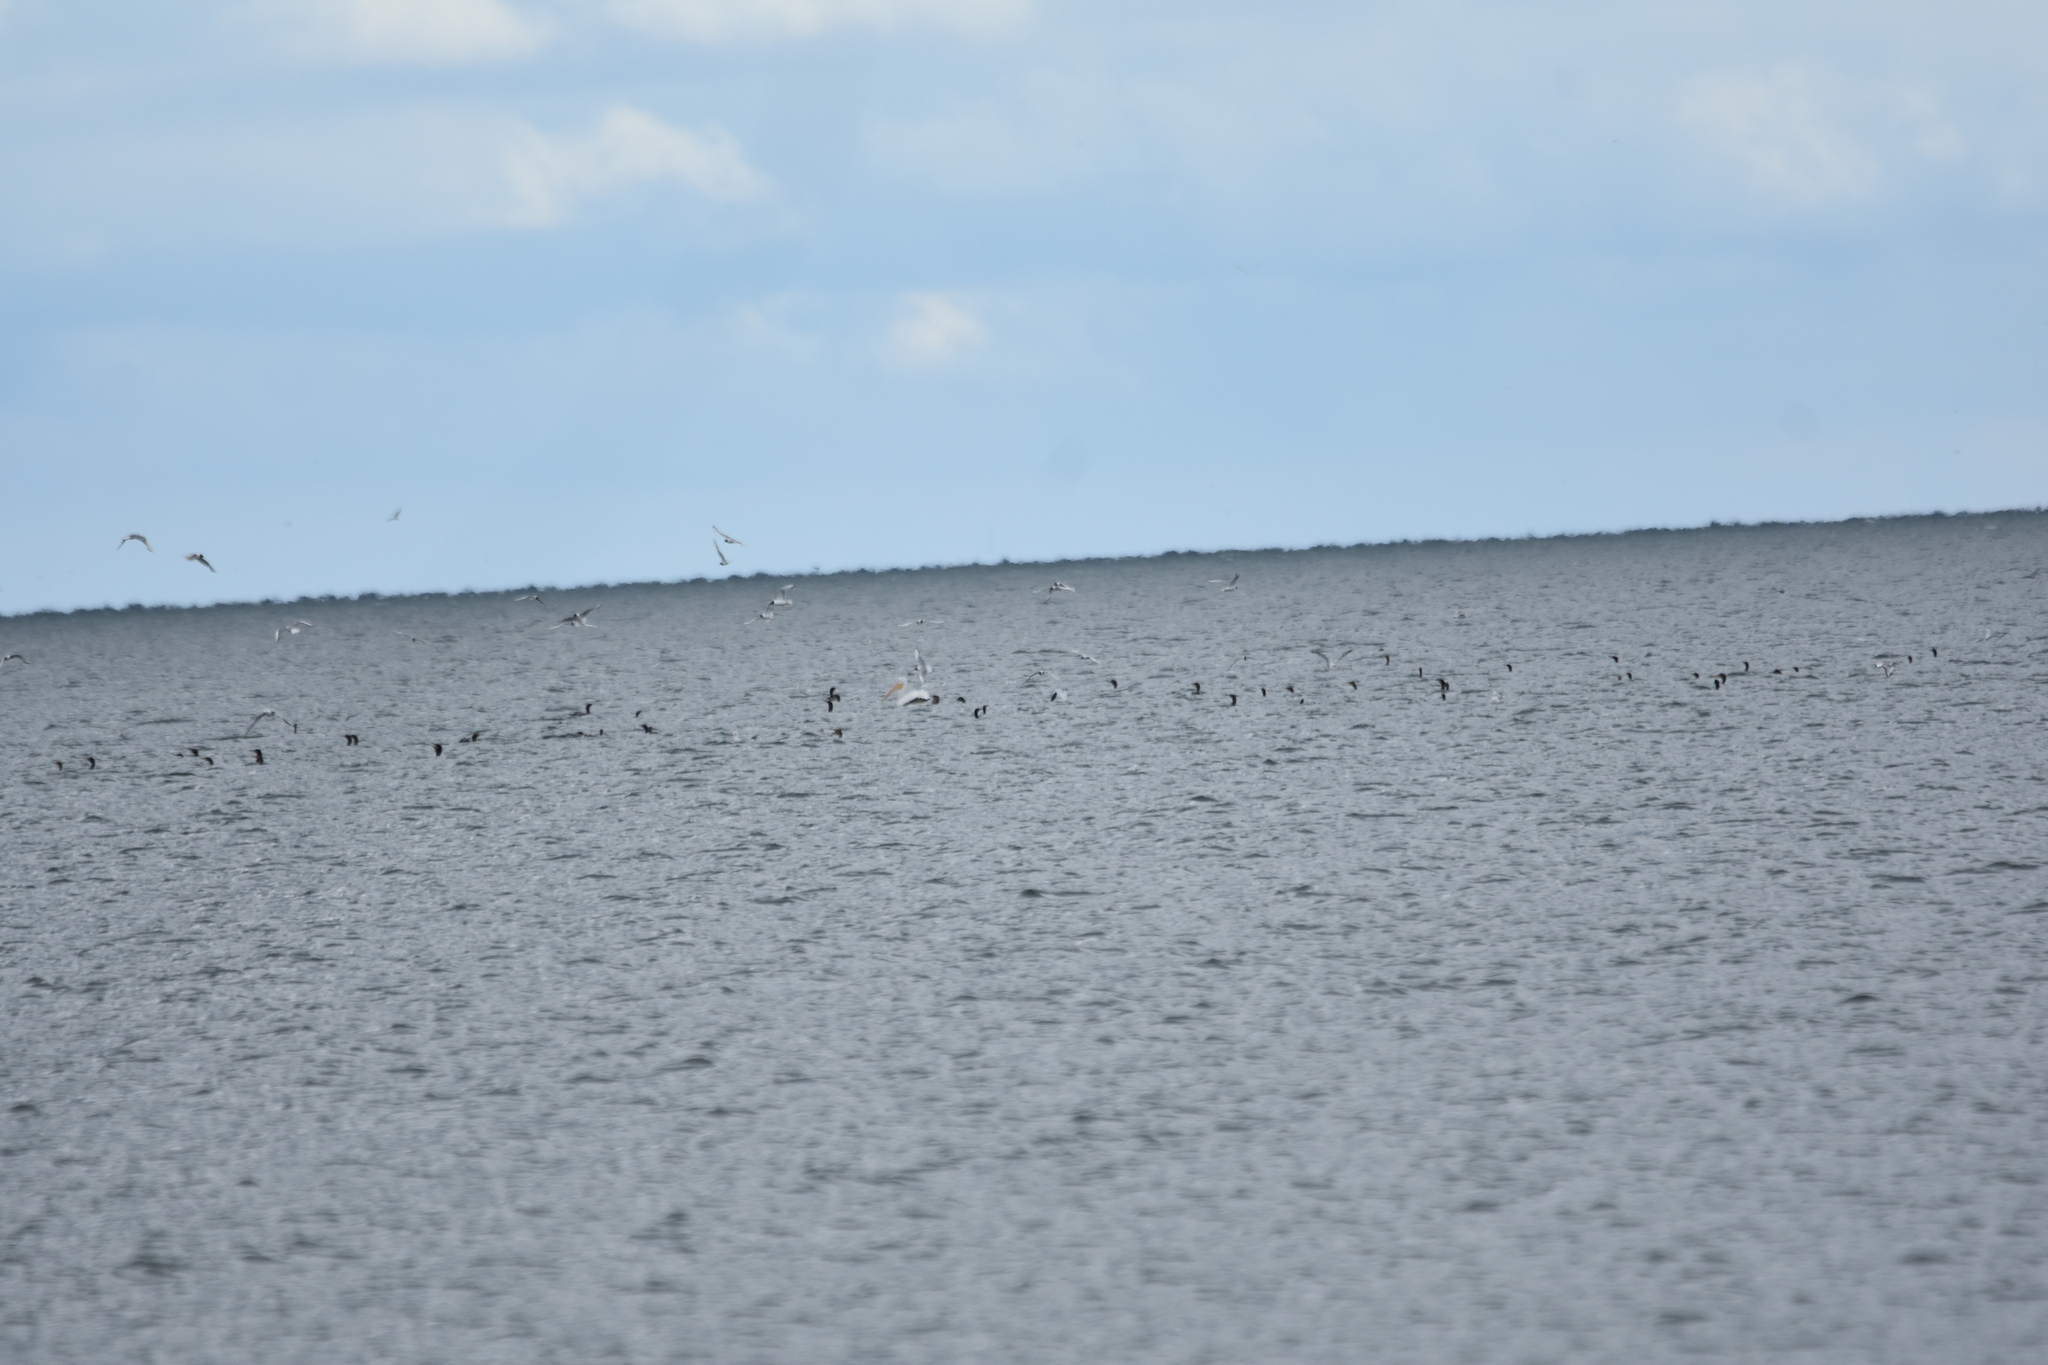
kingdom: Animalia
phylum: Chordata
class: Aves
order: Charadriiformes
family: Laridae
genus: Chroicocephalus
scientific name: Chroicocephalus philadelphia
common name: Bonaparte's gull
